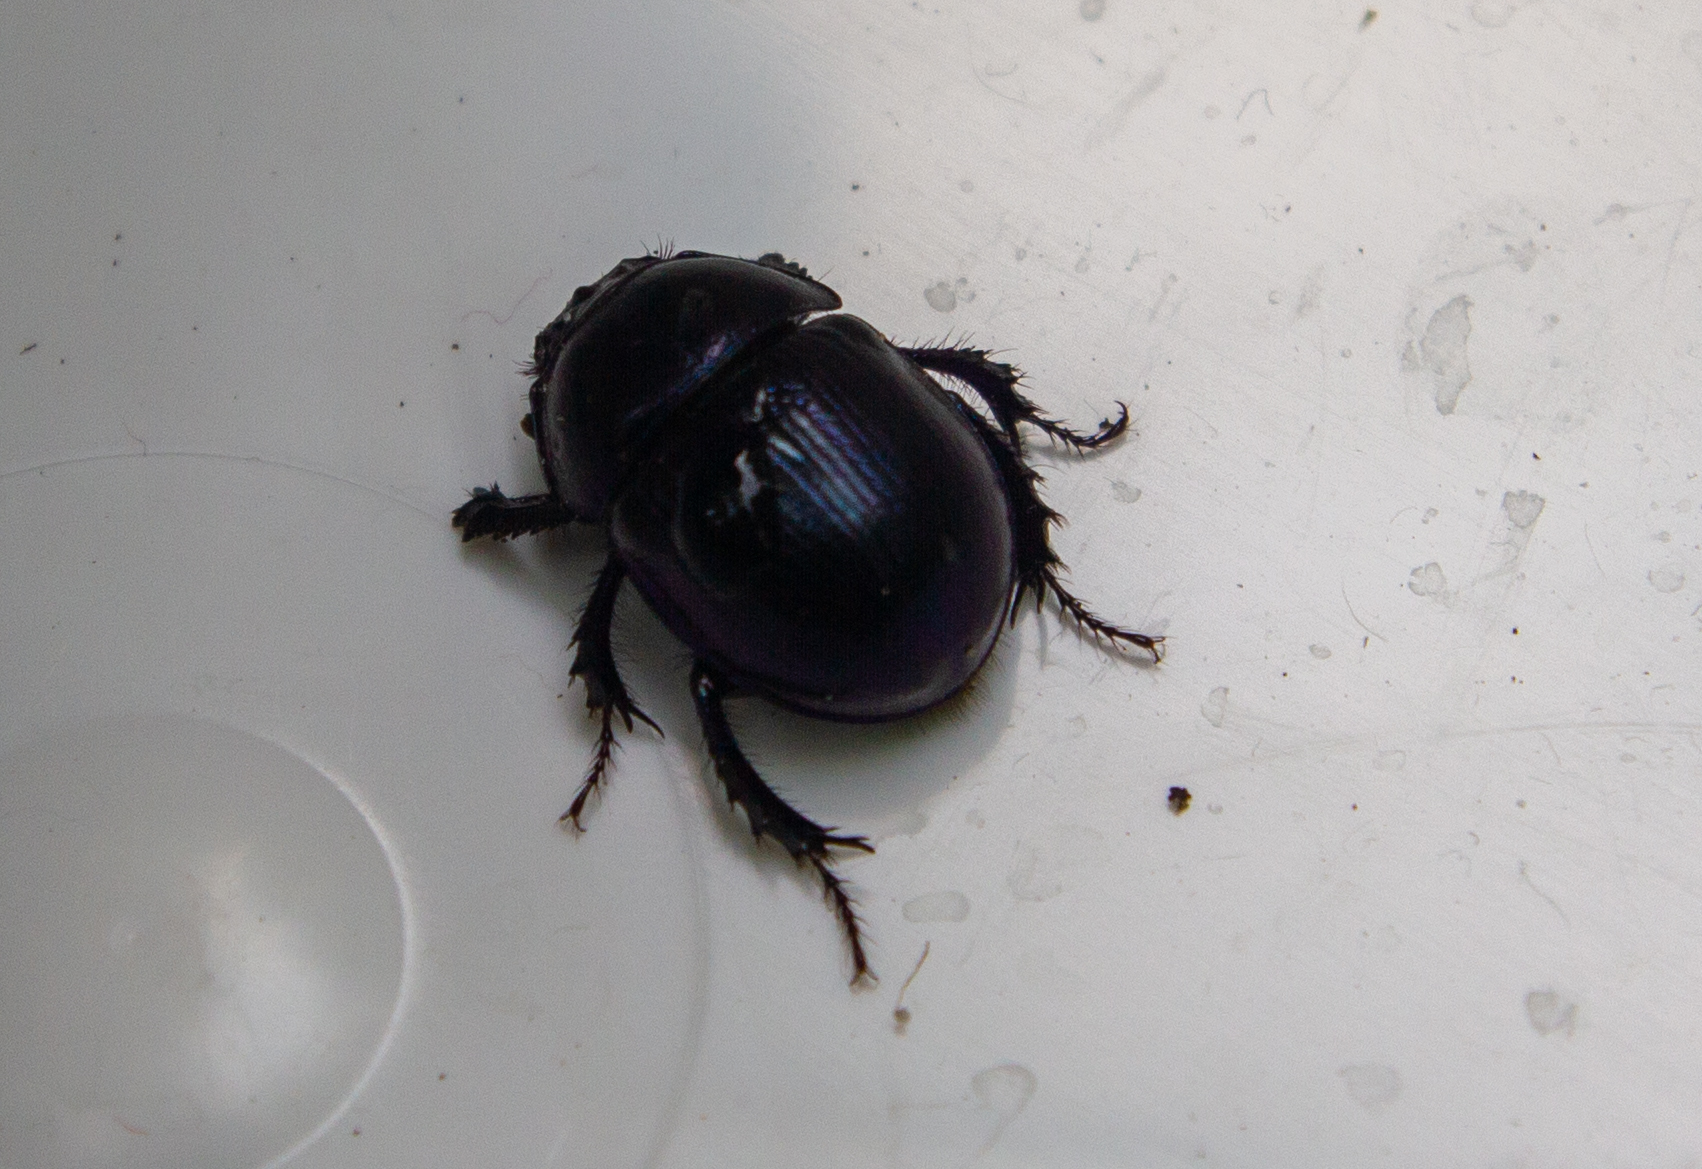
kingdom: Animalia
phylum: Arthropoda
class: Insecta
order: Coleoptera
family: Geotrupidae
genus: Anoplotrupes
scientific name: Anoplotrupes stercorosus
